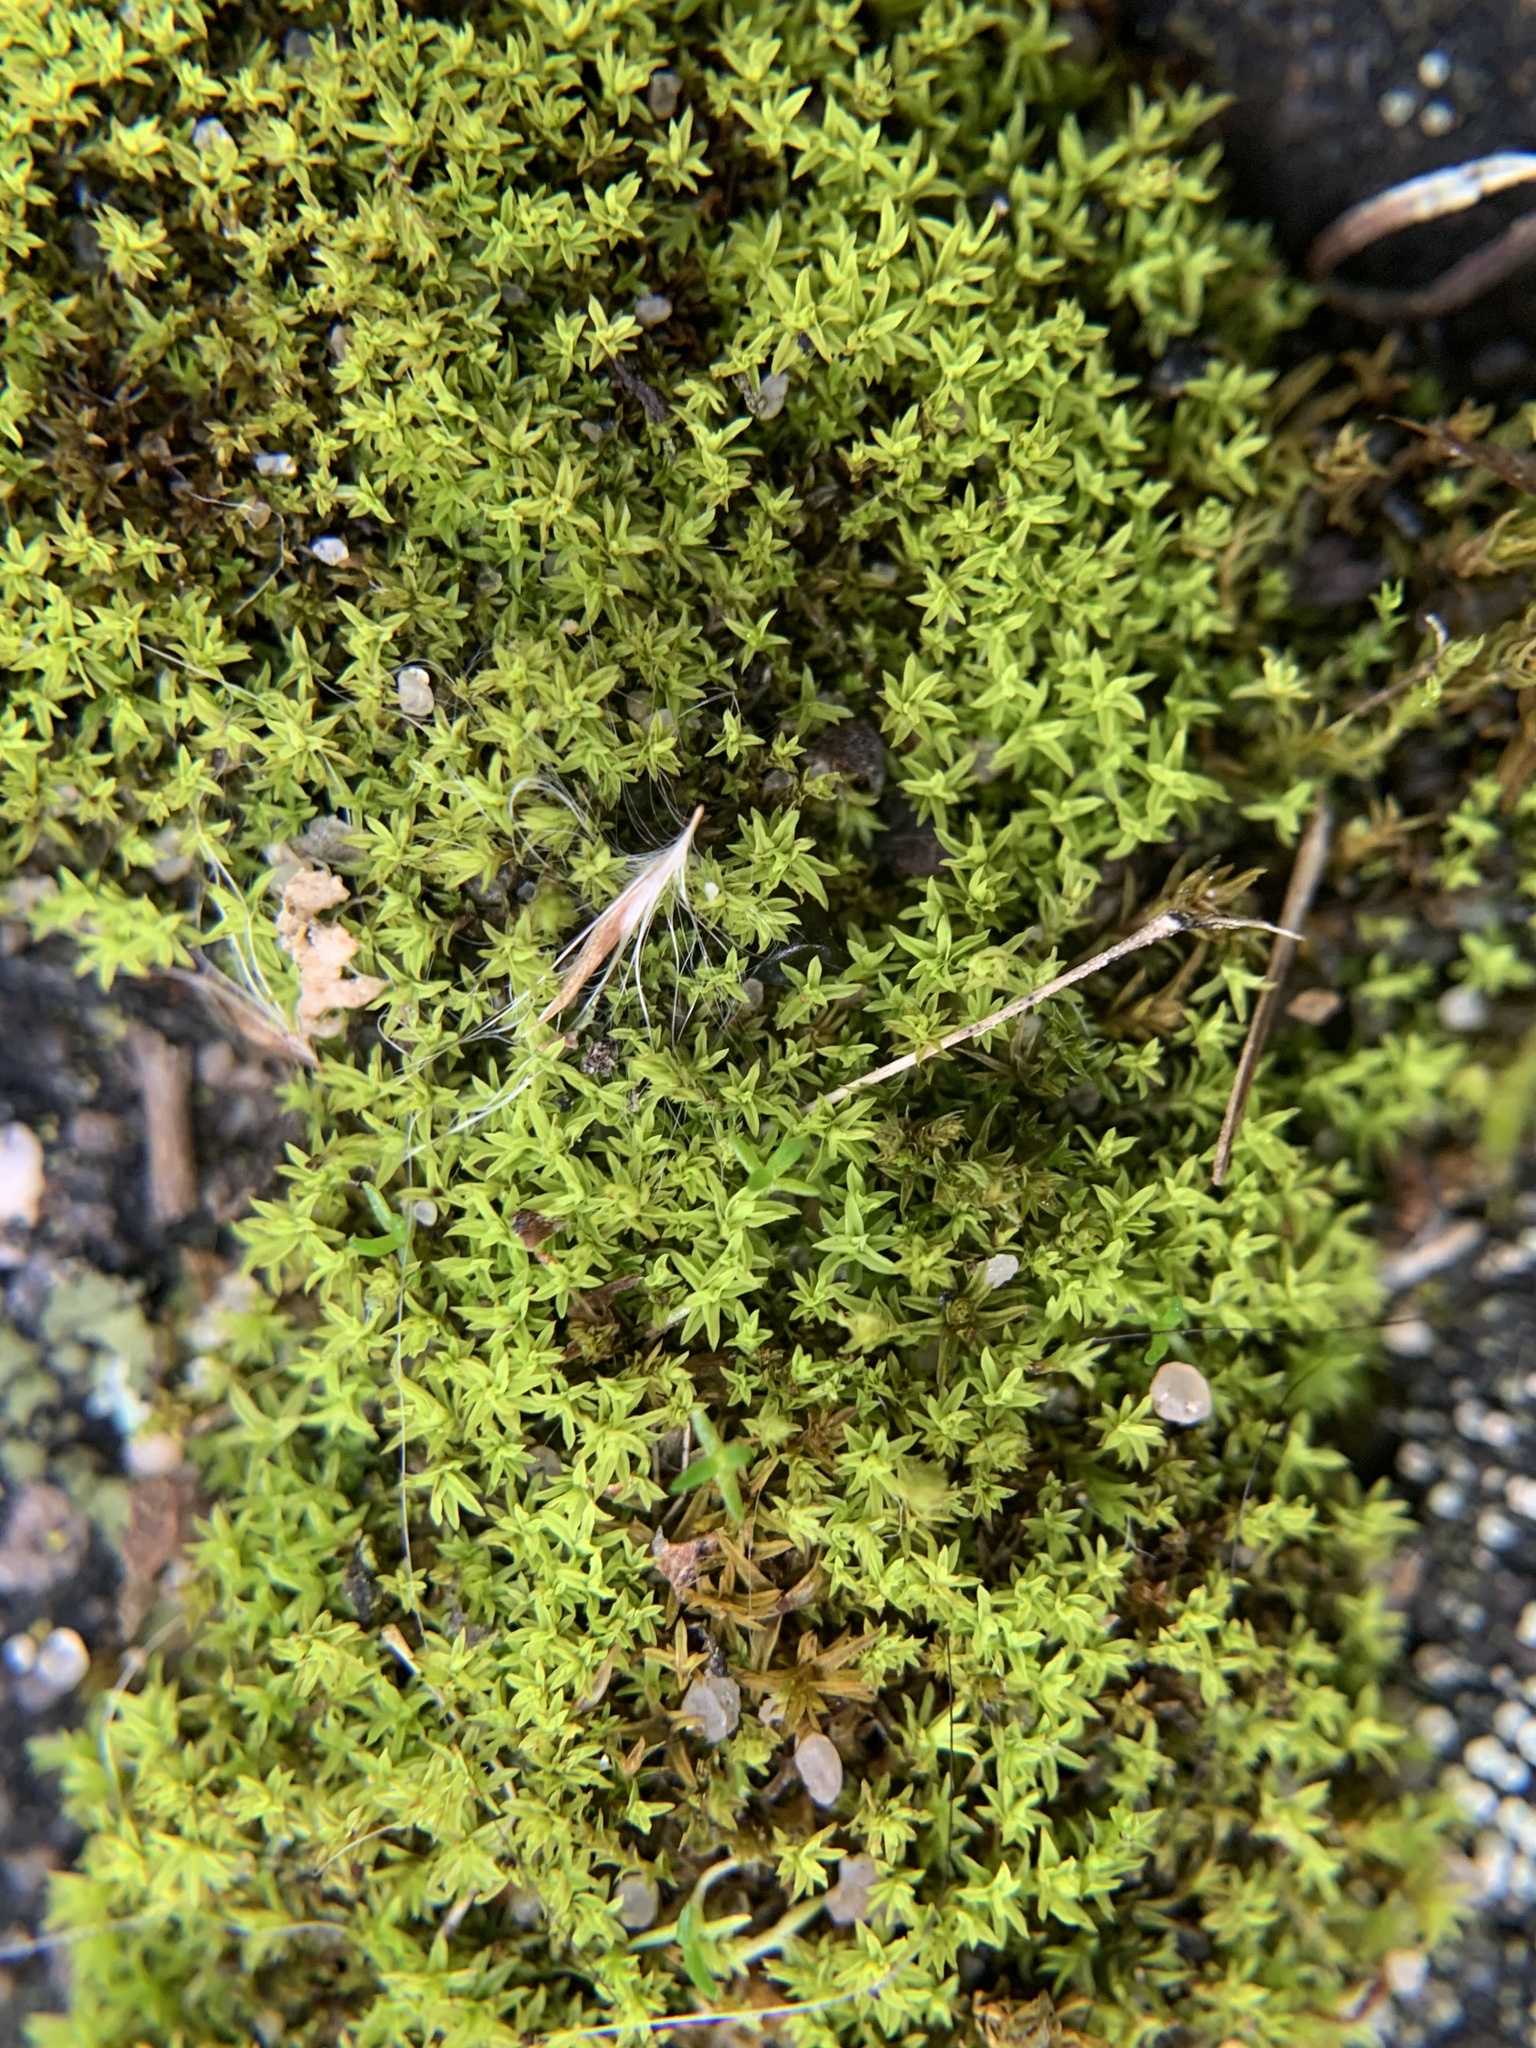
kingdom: Plantae
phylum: Bryophyta
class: Bryopsida
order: Pottiales
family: Pottiaceae
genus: Barbula
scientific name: Barbula unguiculata
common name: Prickly beard moss
